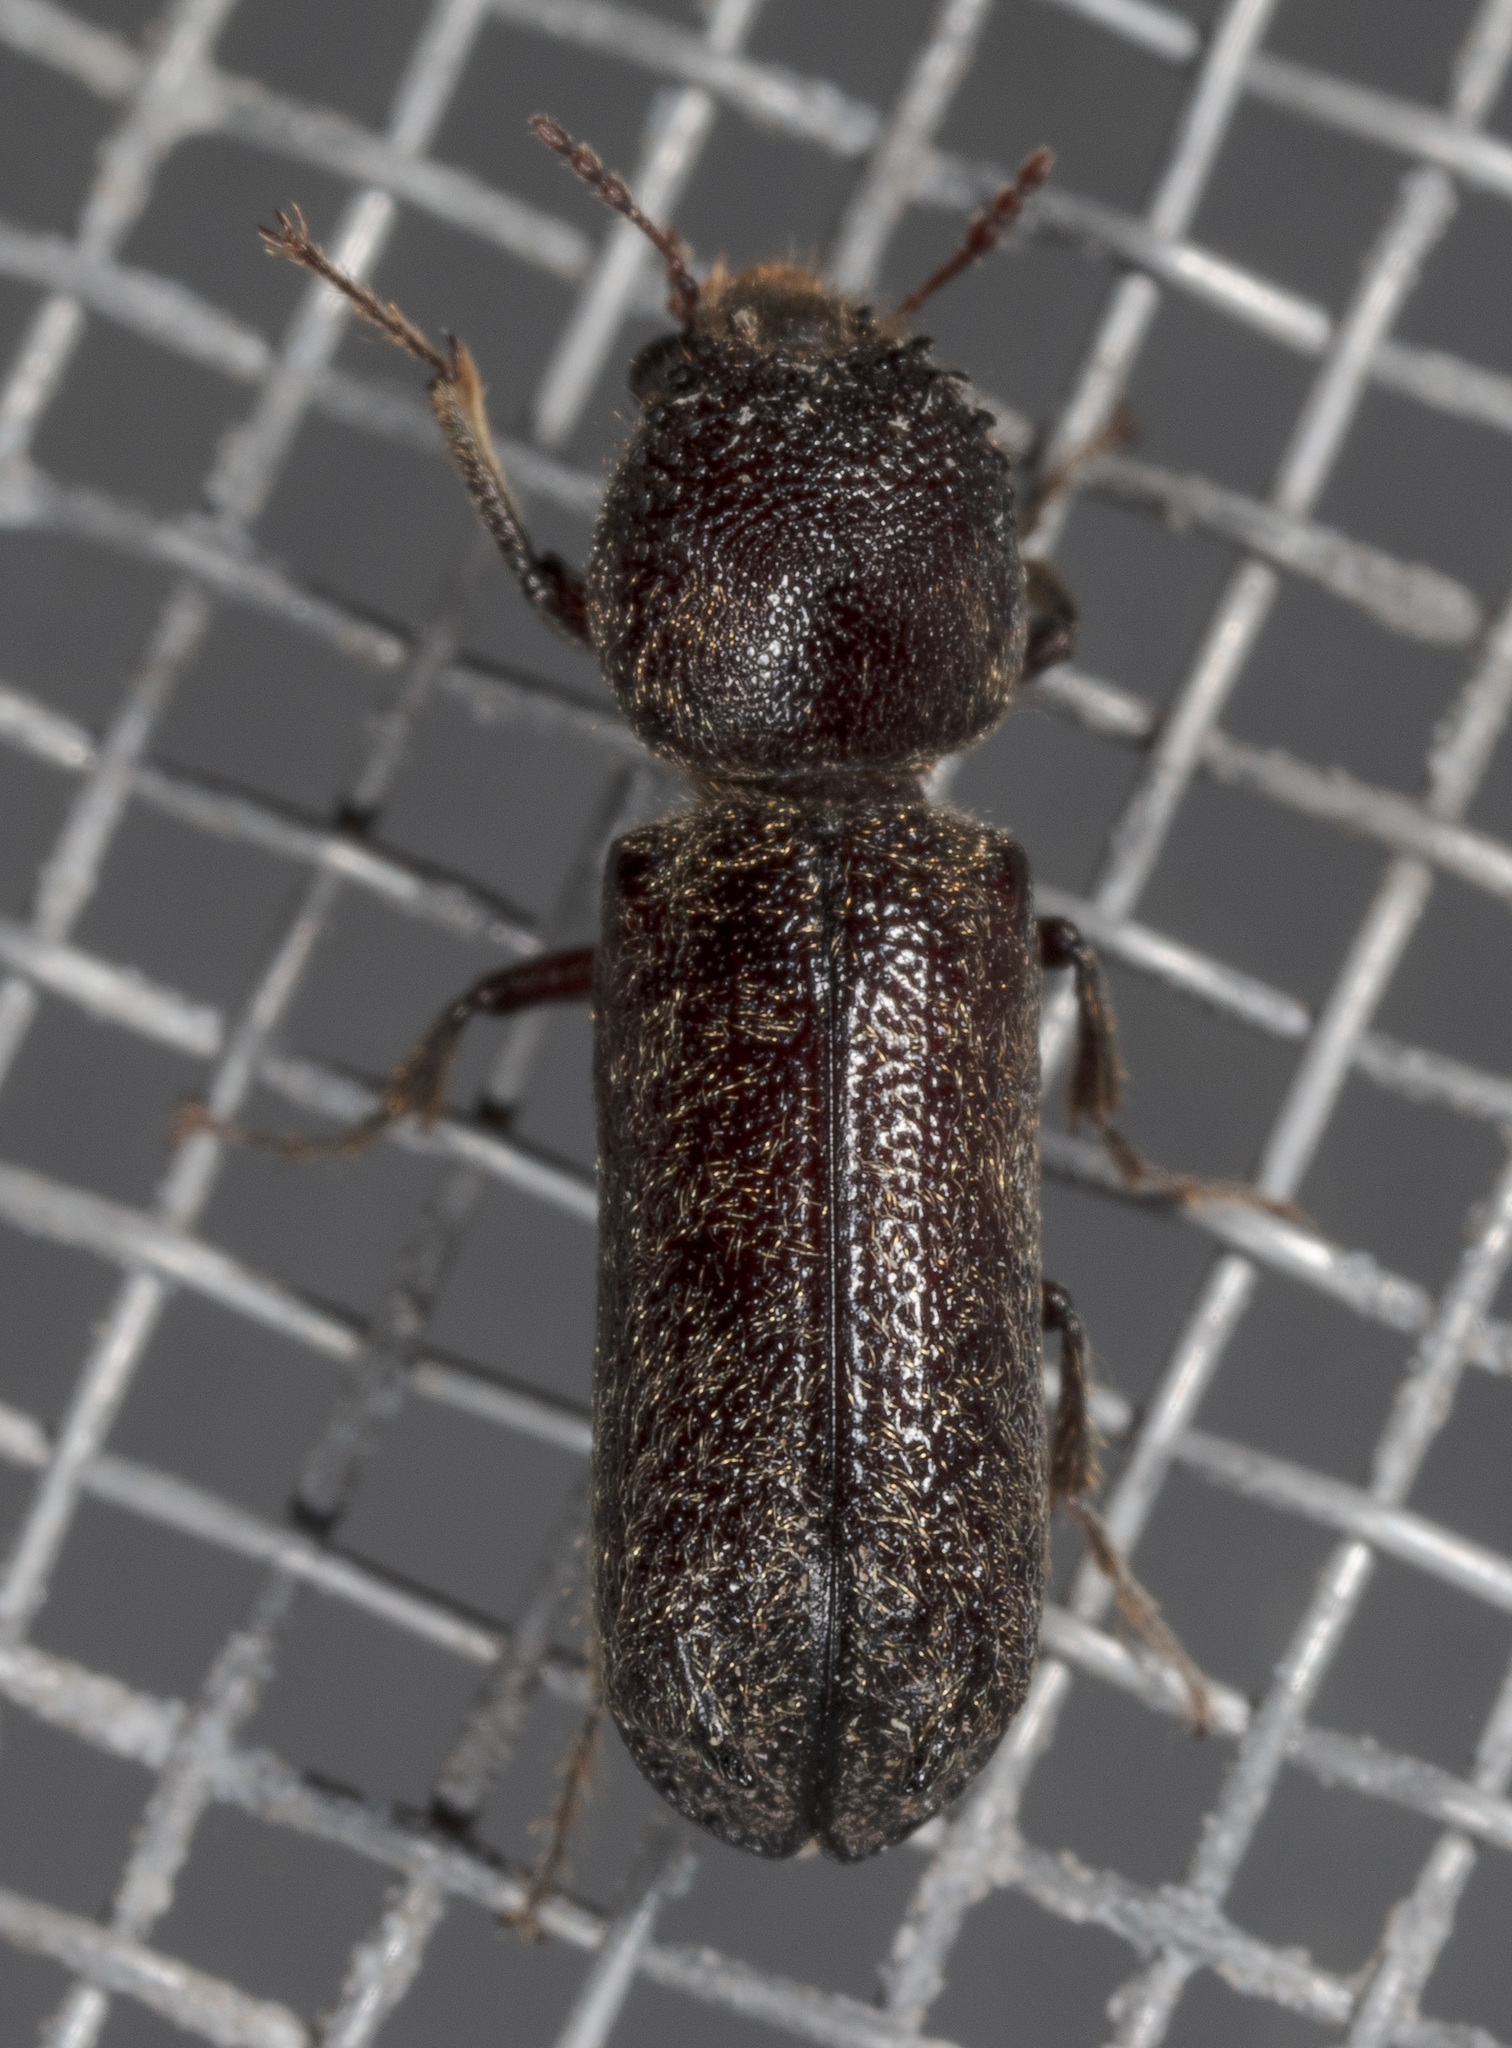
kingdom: Animalia
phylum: Arthropoda
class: Insecta
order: Coleoptera
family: Bostrichidae
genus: Amphicerus
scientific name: Amphicerus bicaudatus
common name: Apple twig borer
